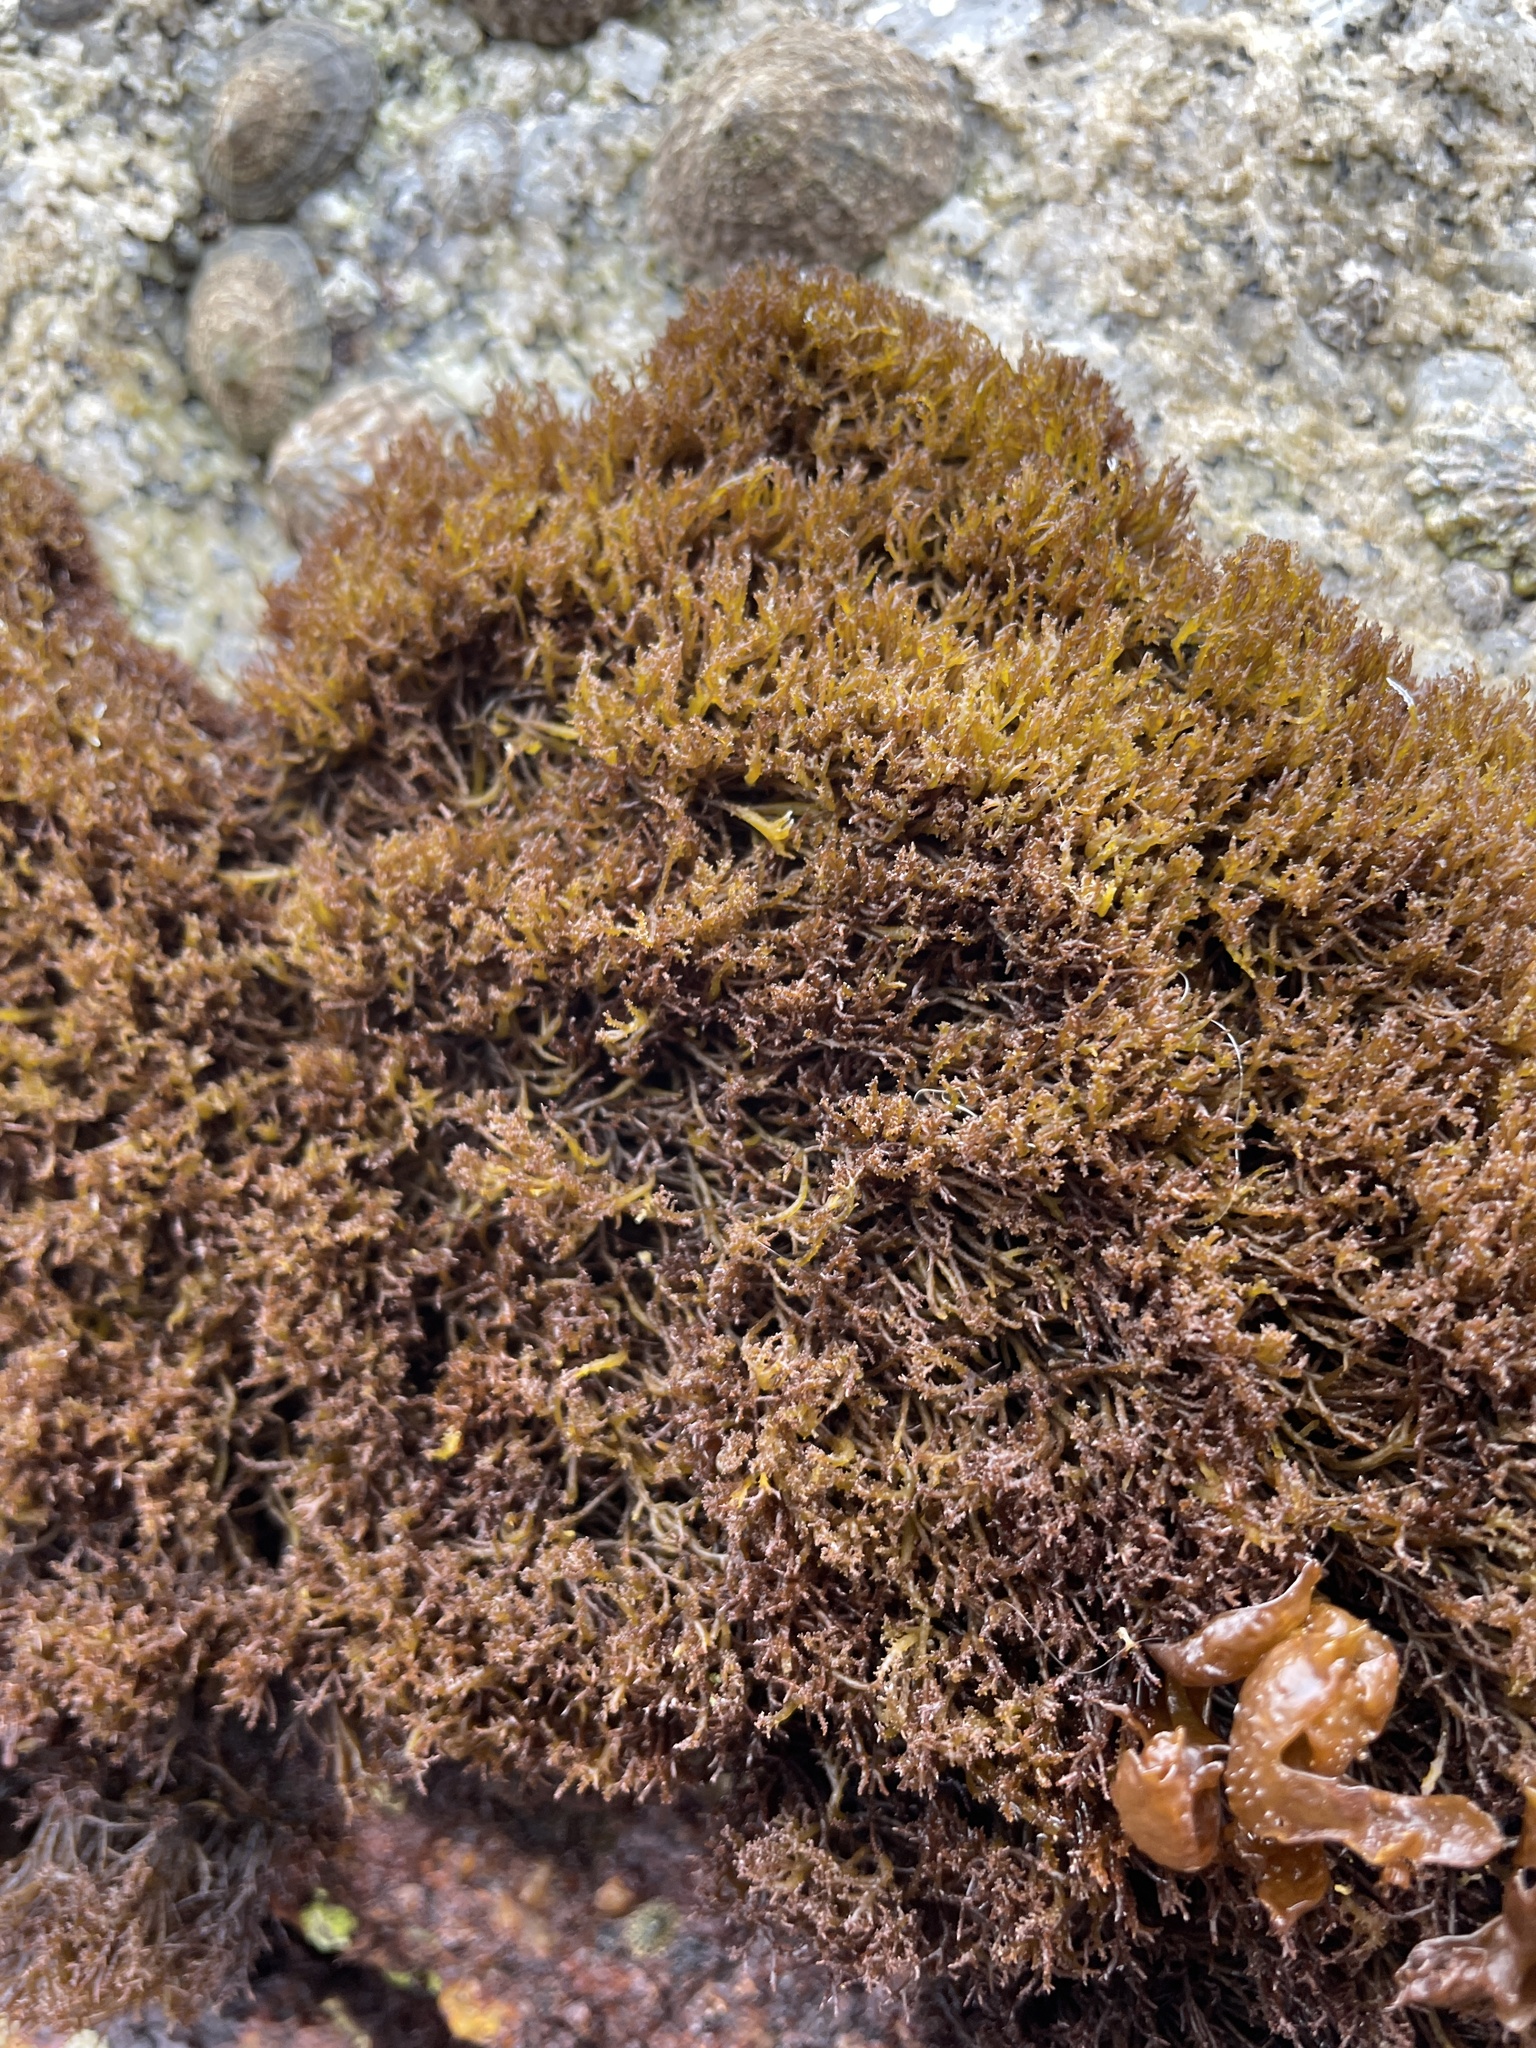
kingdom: Plantae
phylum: Rhodophyta
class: Florideophyceae
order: Gigartinales
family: Endocladiaceae
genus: Endocladia
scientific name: Endocladia muricata
